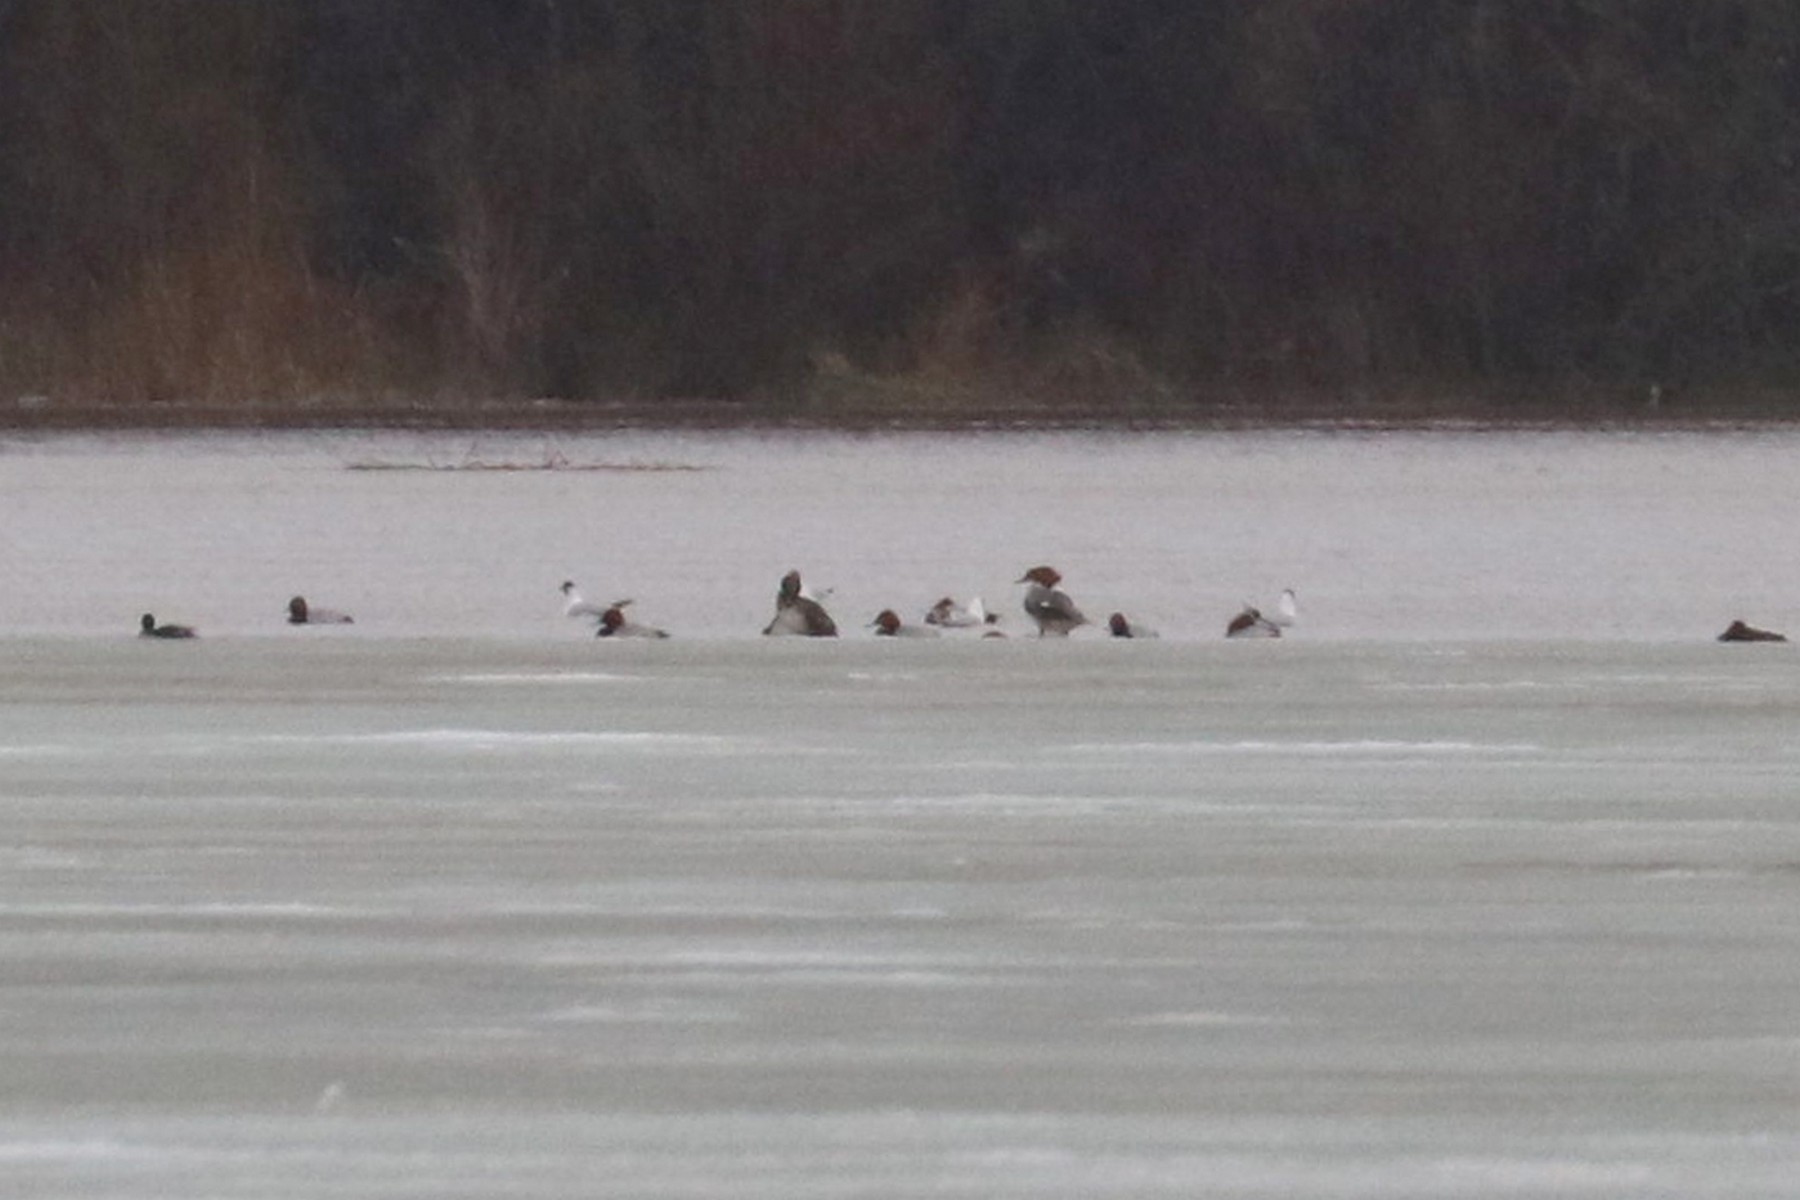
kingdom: Animalia
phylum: Chordata
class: Aves
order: Anseriformes
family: Anatidae
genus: Mergus
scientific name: Mergus merganser
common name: Common merganser
